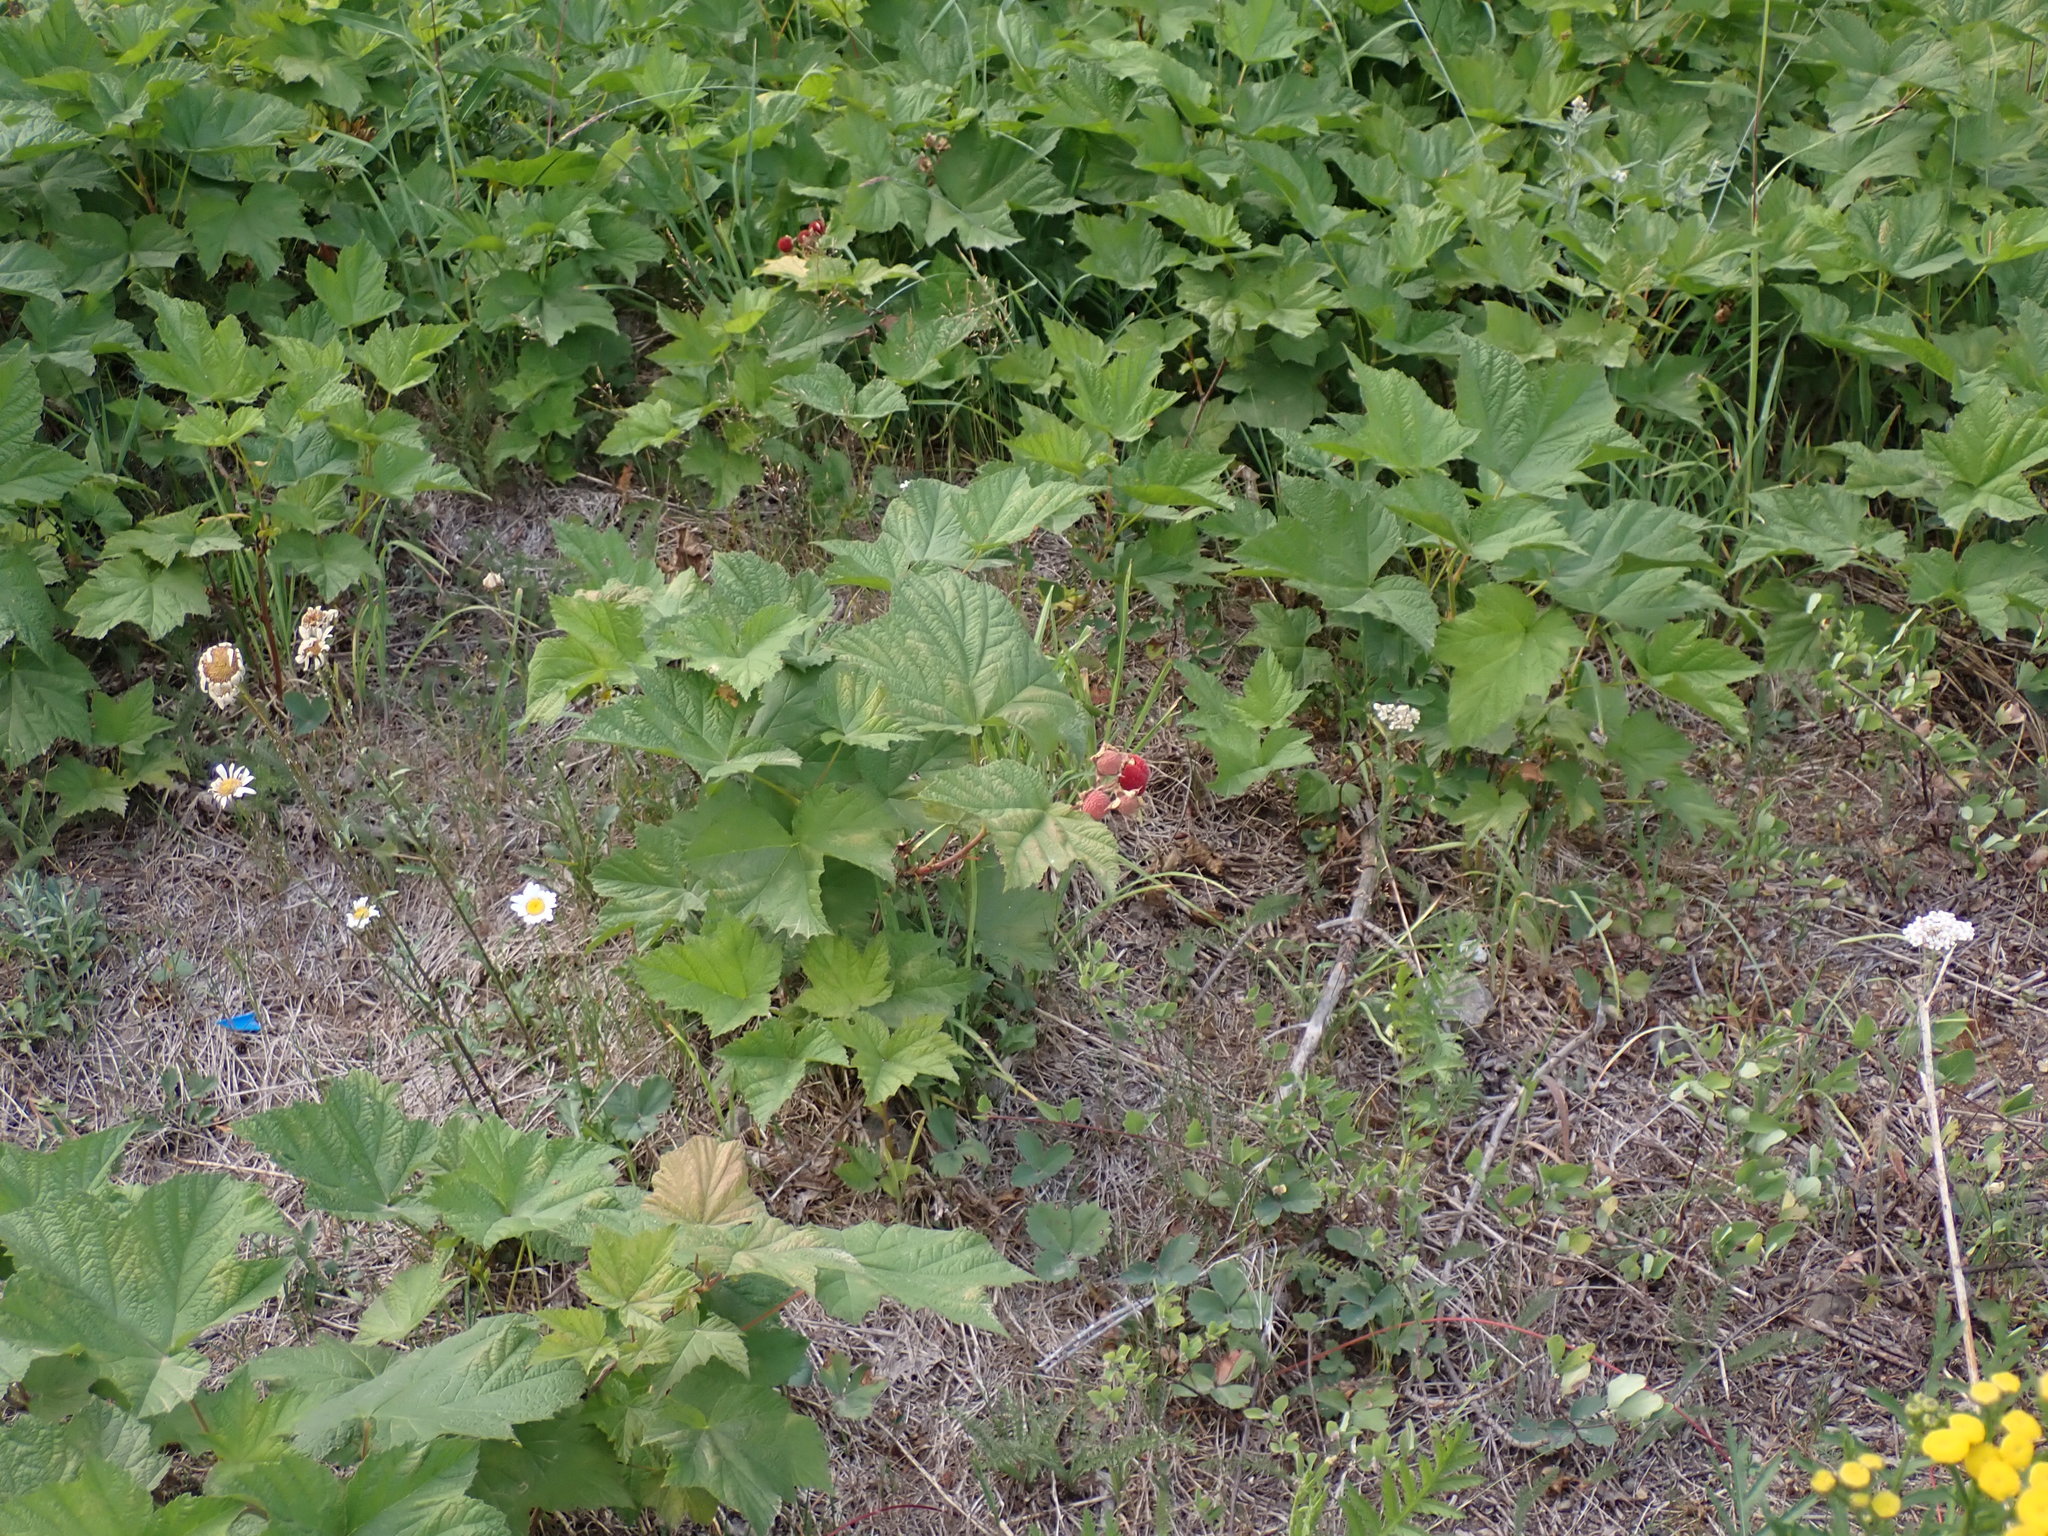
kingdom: Plantae
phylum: Tracheophyta
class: Magnoliopsida
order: Rosales
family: Rosaceae
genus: Rubus
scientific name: Rubus parviflorus
